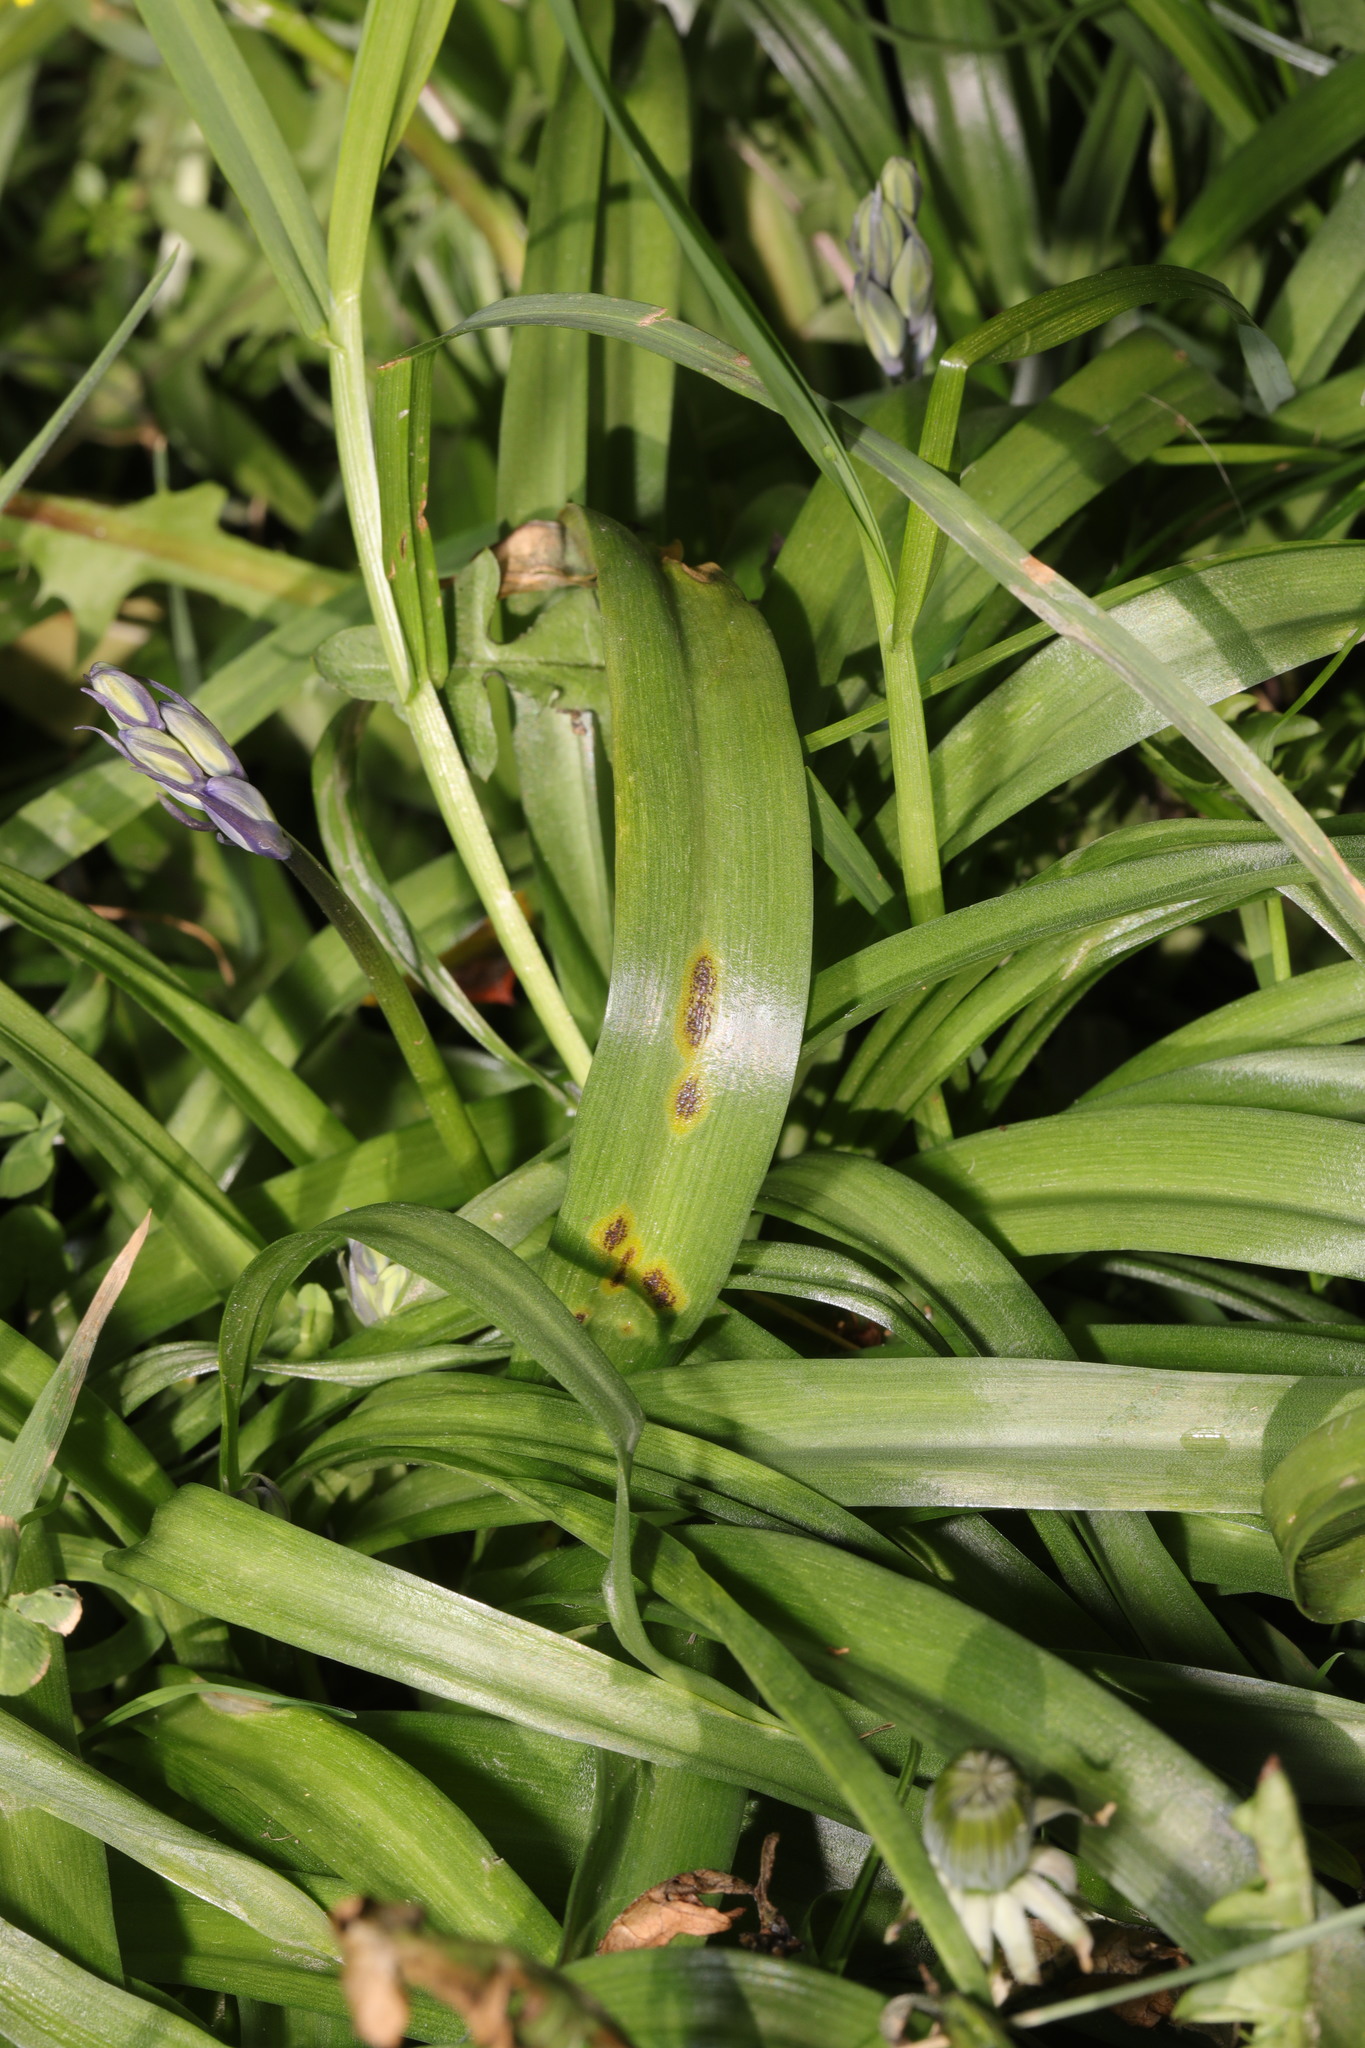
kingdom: Plantae
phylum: Tracheophyta
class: Liliopsida
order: Asparagales
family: Asparagaceae
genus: Hyacinthoides
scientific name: Hyacinthoides massartiana
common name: Hyacinthoides
